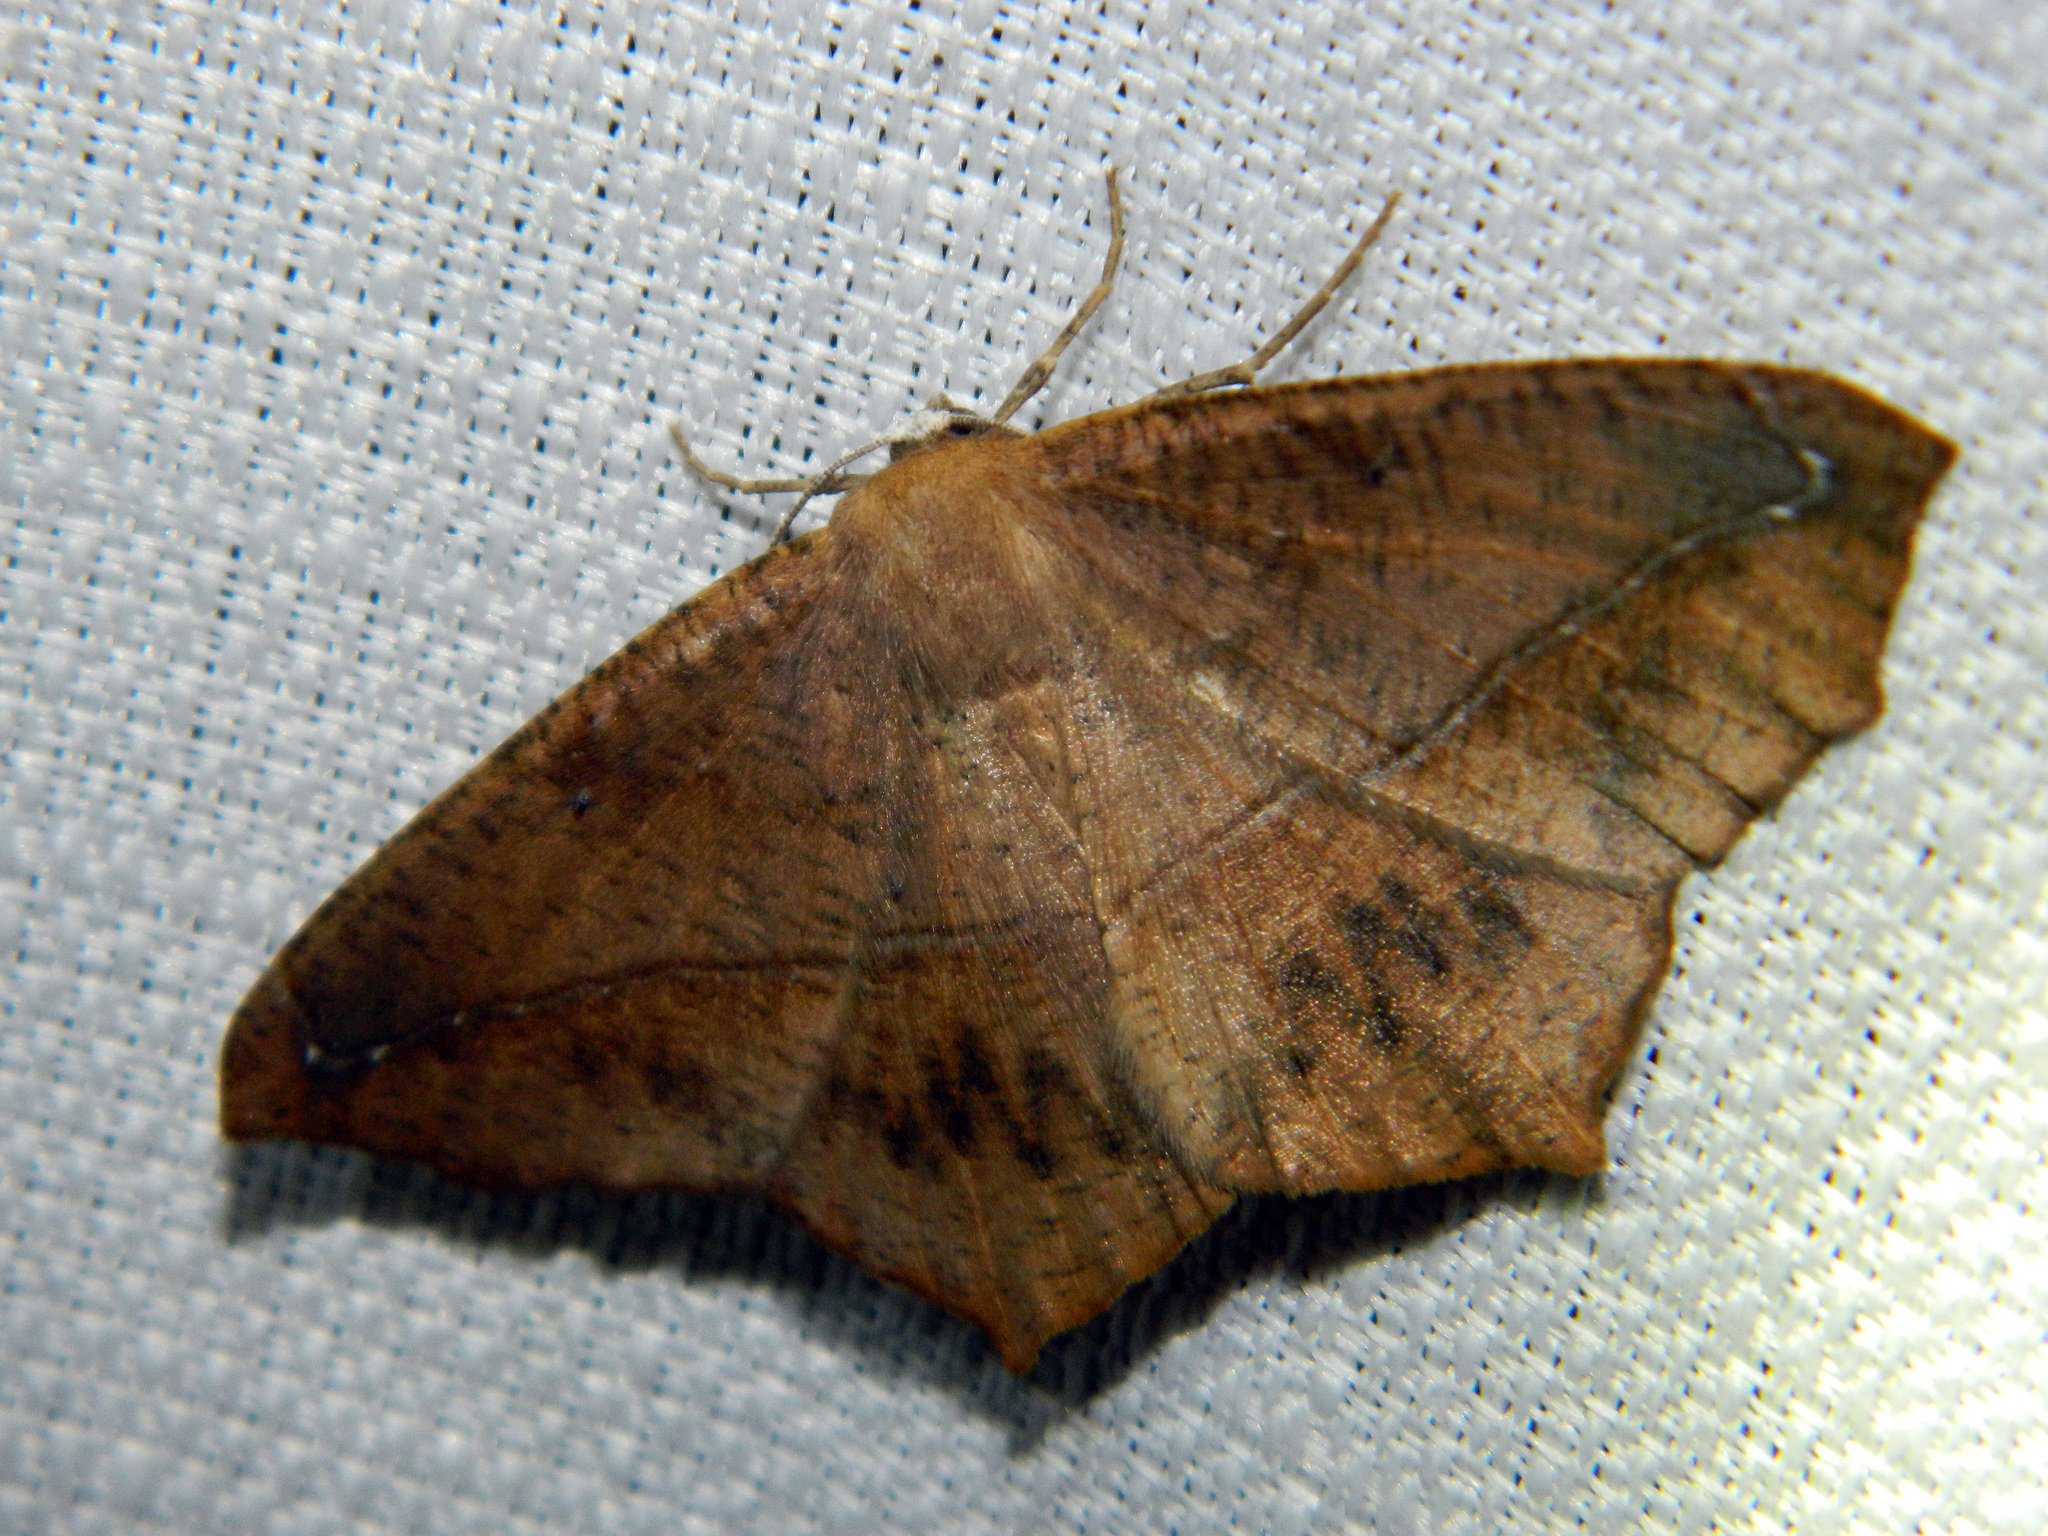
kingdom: Animalia
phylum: Arthropoda
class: Insecta
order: Lepidoptera
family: Geometridae
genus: Prochoerodes
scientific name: Prochoerodes lineola
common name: Large maple spanworm
